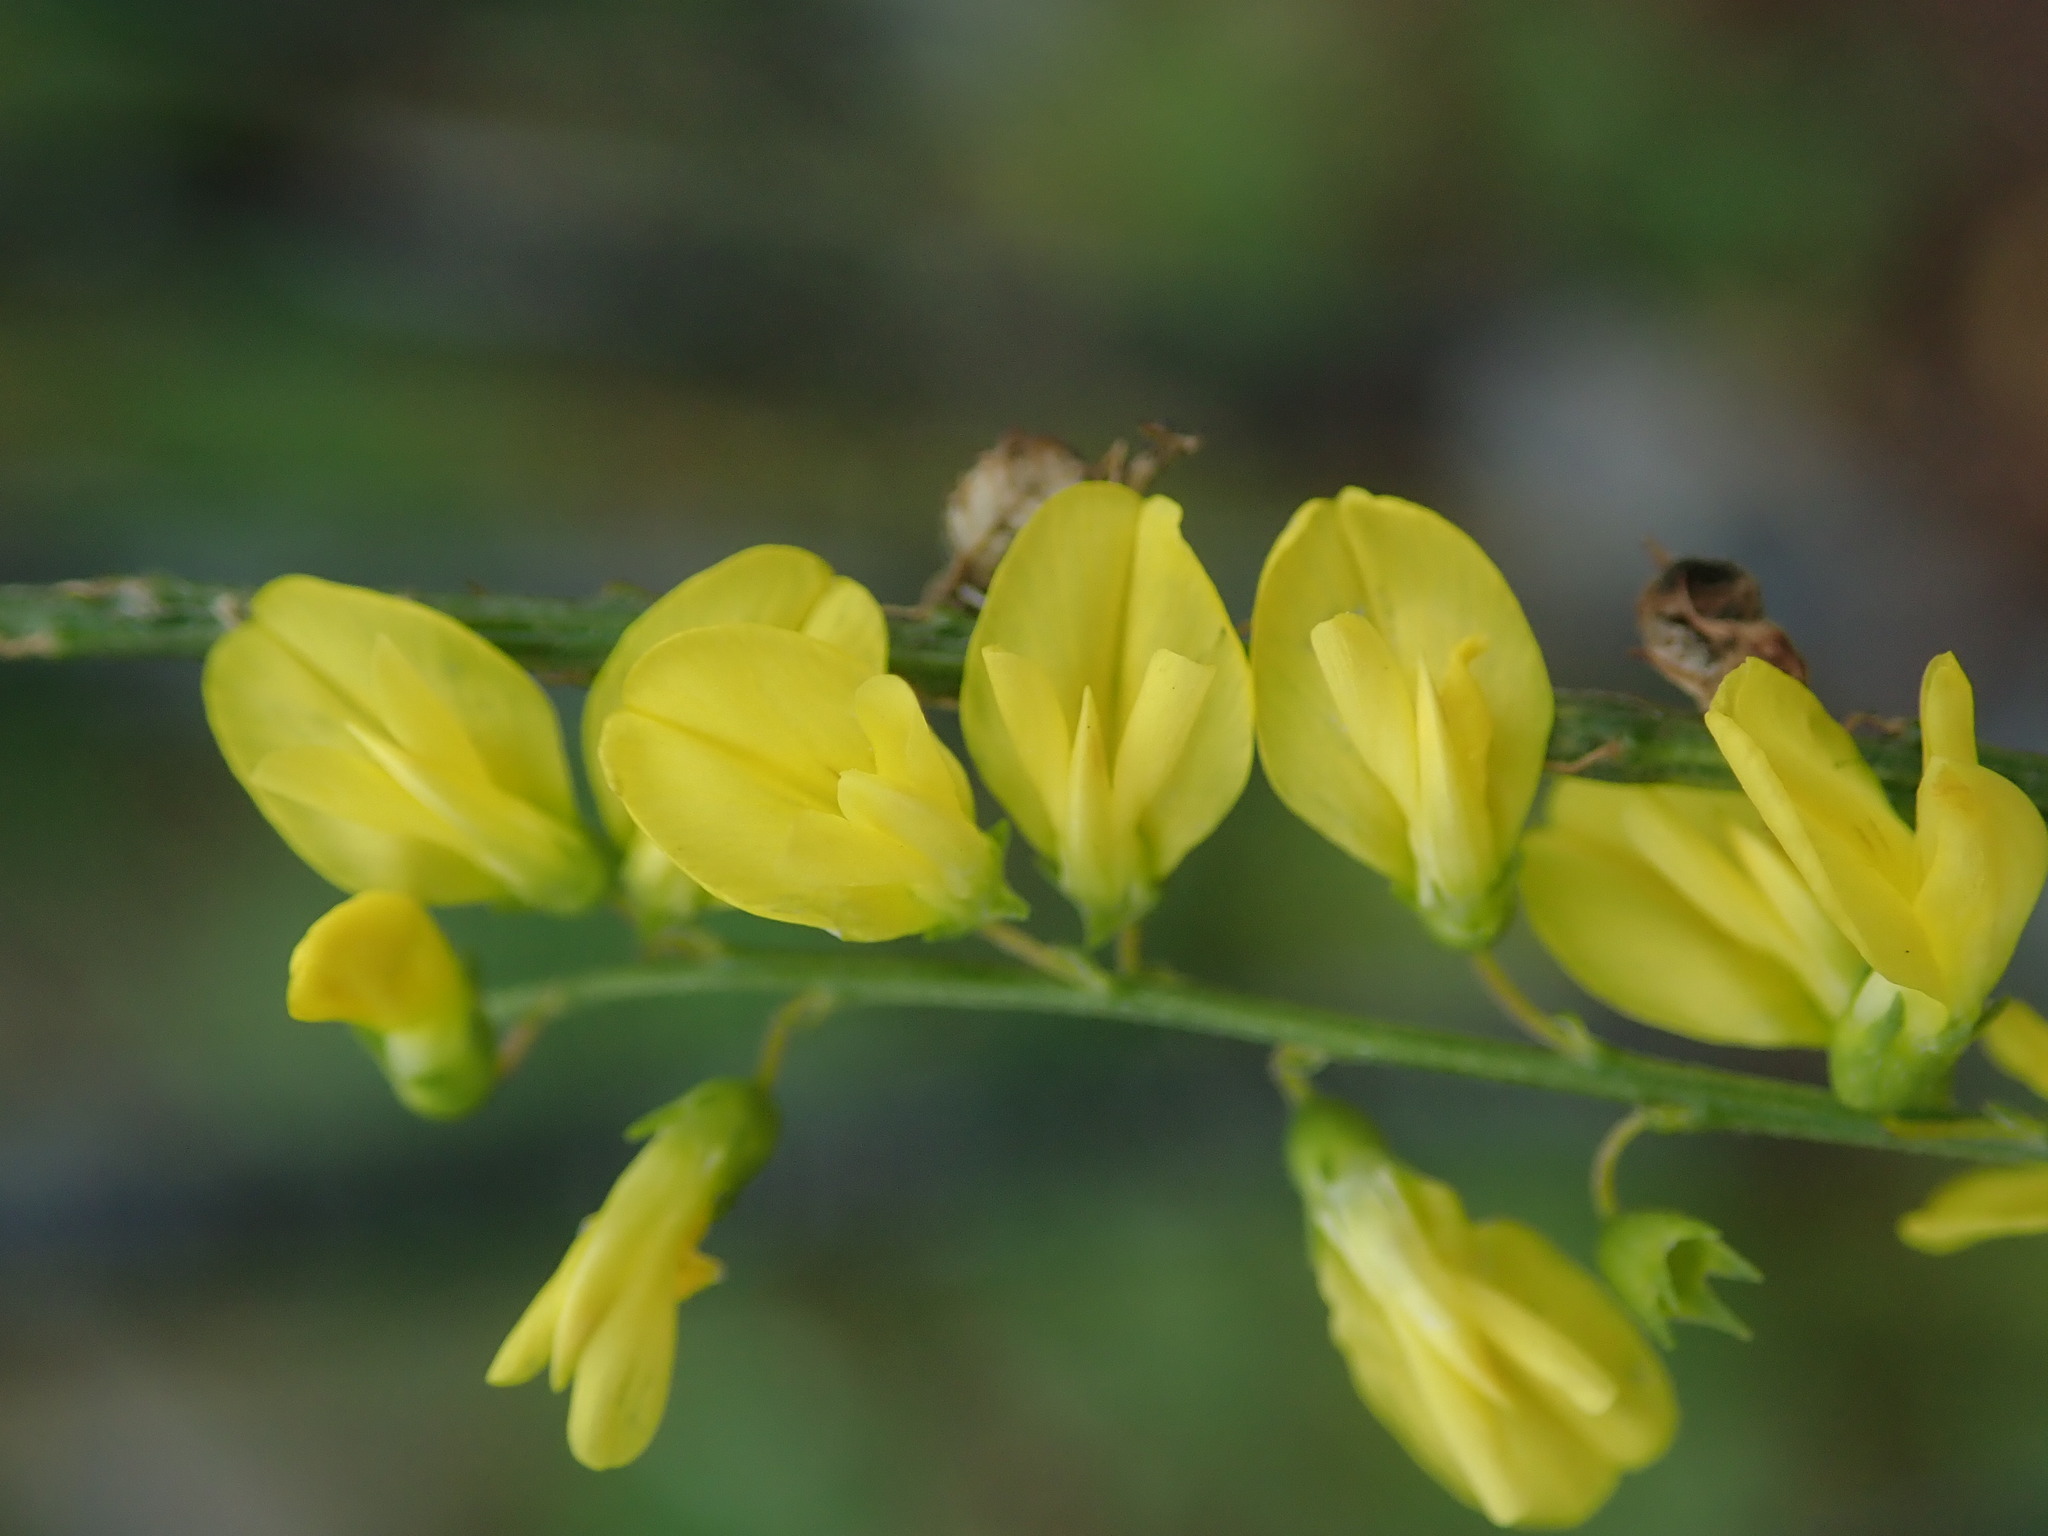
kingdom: Plantae
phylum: Tracheophyta
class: Magnoliopsida
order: Fabales
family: Fabaceae
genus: Melilotus
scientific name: Melilotus officinalis
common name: Sweetclover
